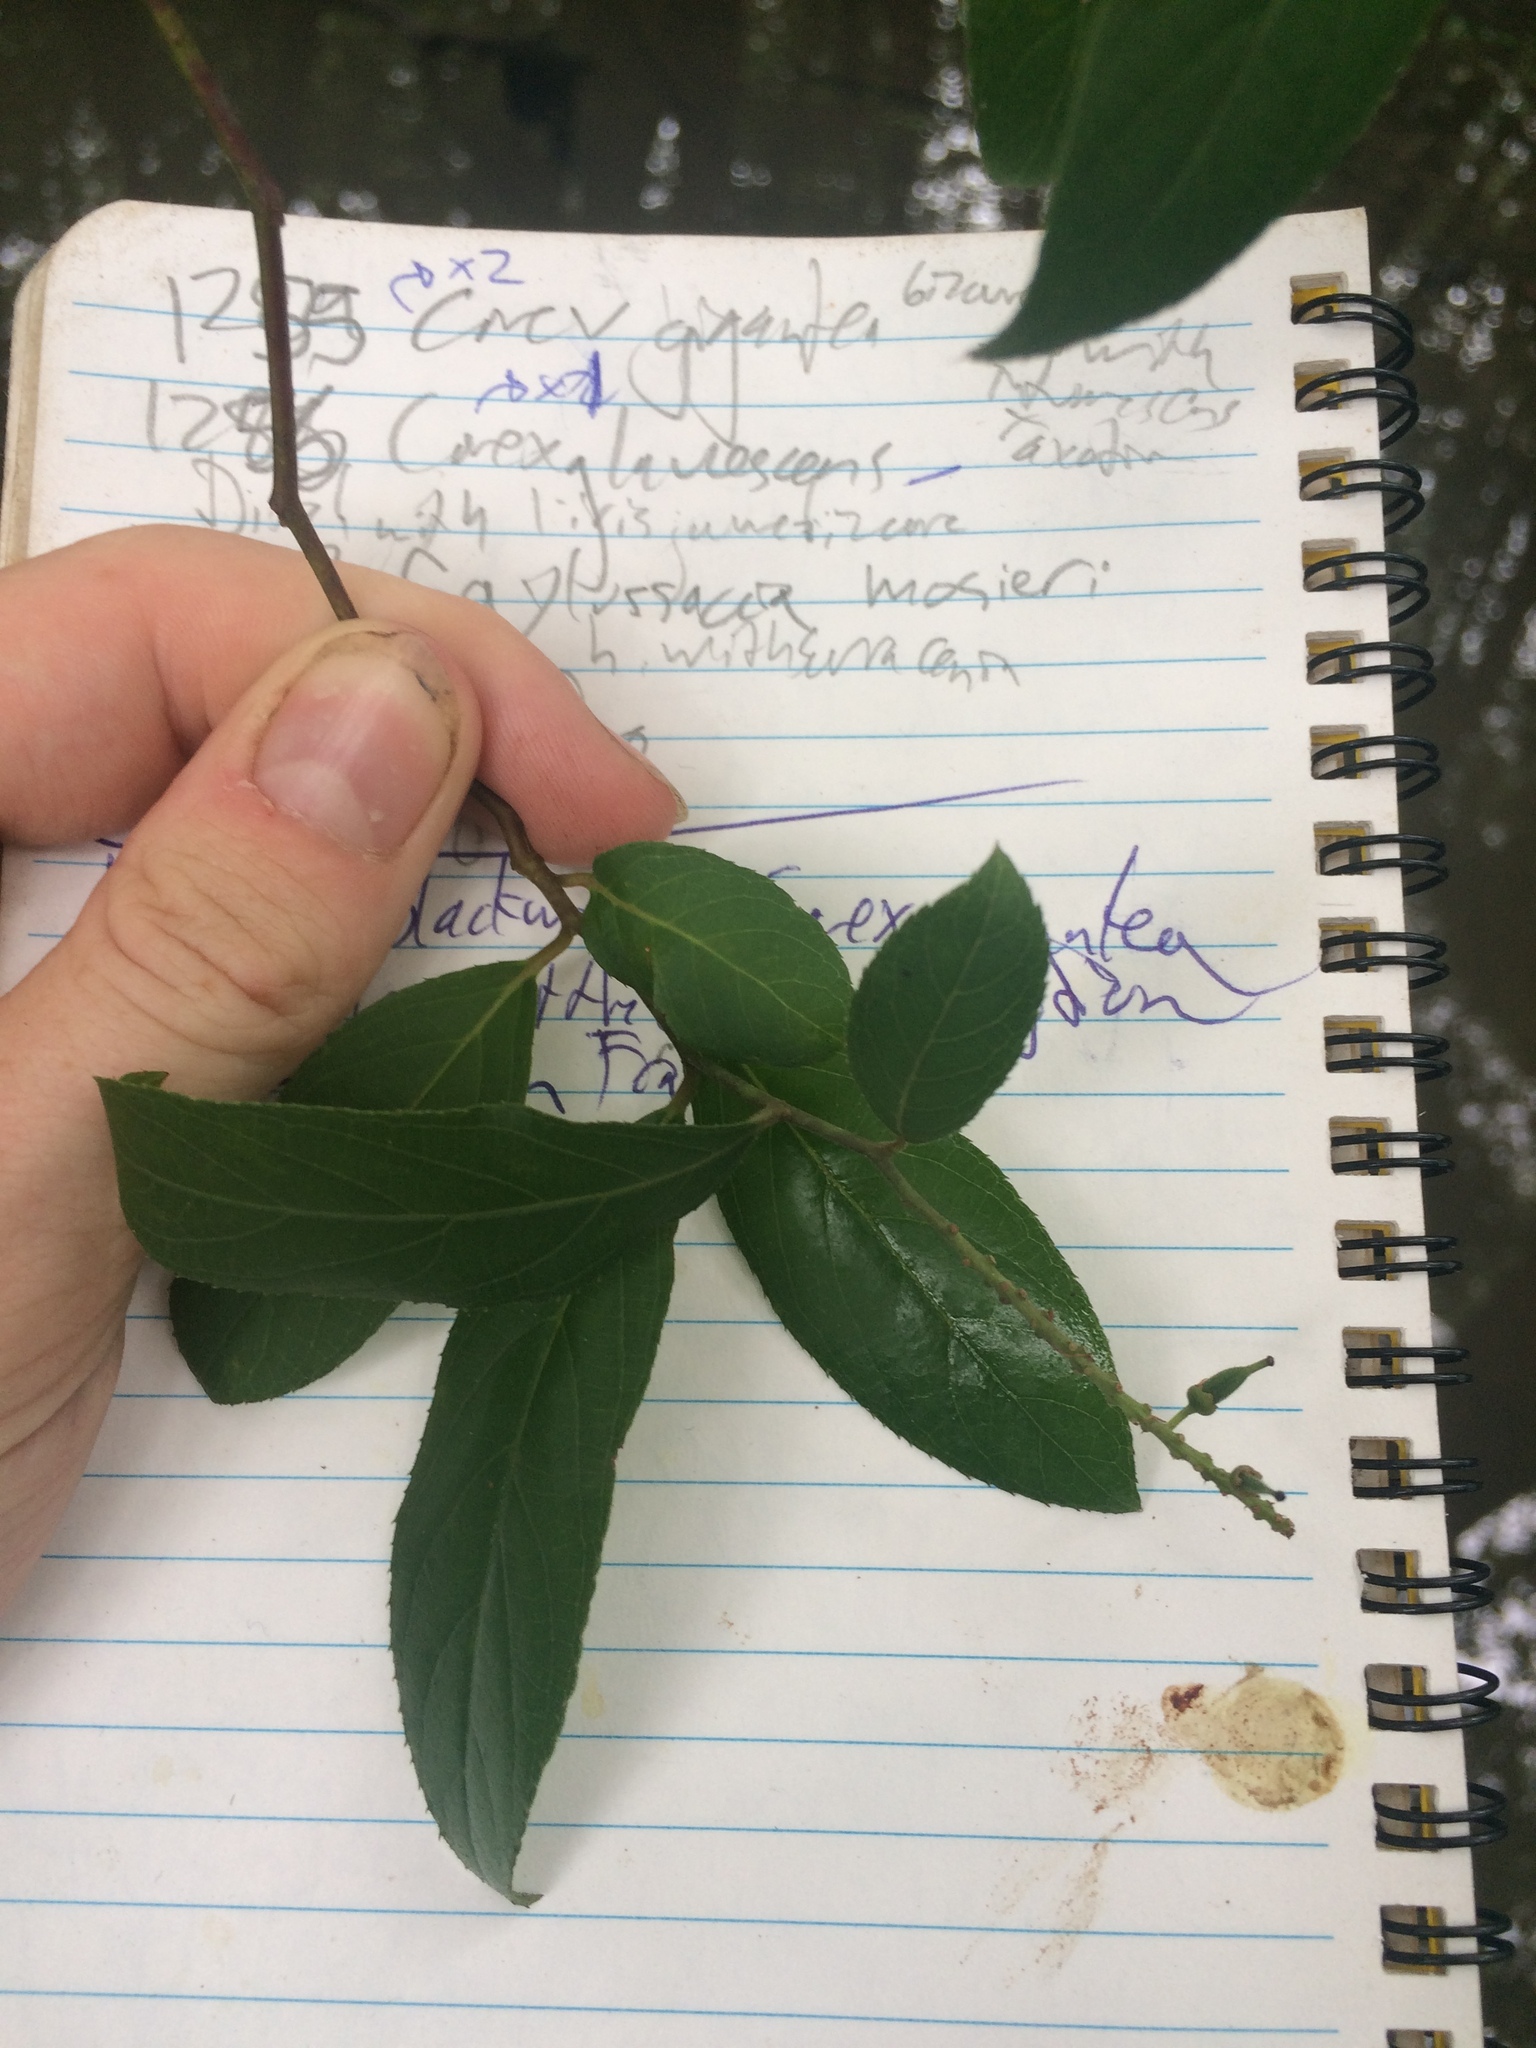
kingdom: Plantae
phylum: Tracheophyta
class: Magnoliopsida
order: Saxifragales
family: Iteaceae
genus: Itea
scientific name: Itea virginica
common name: Sweetspire
